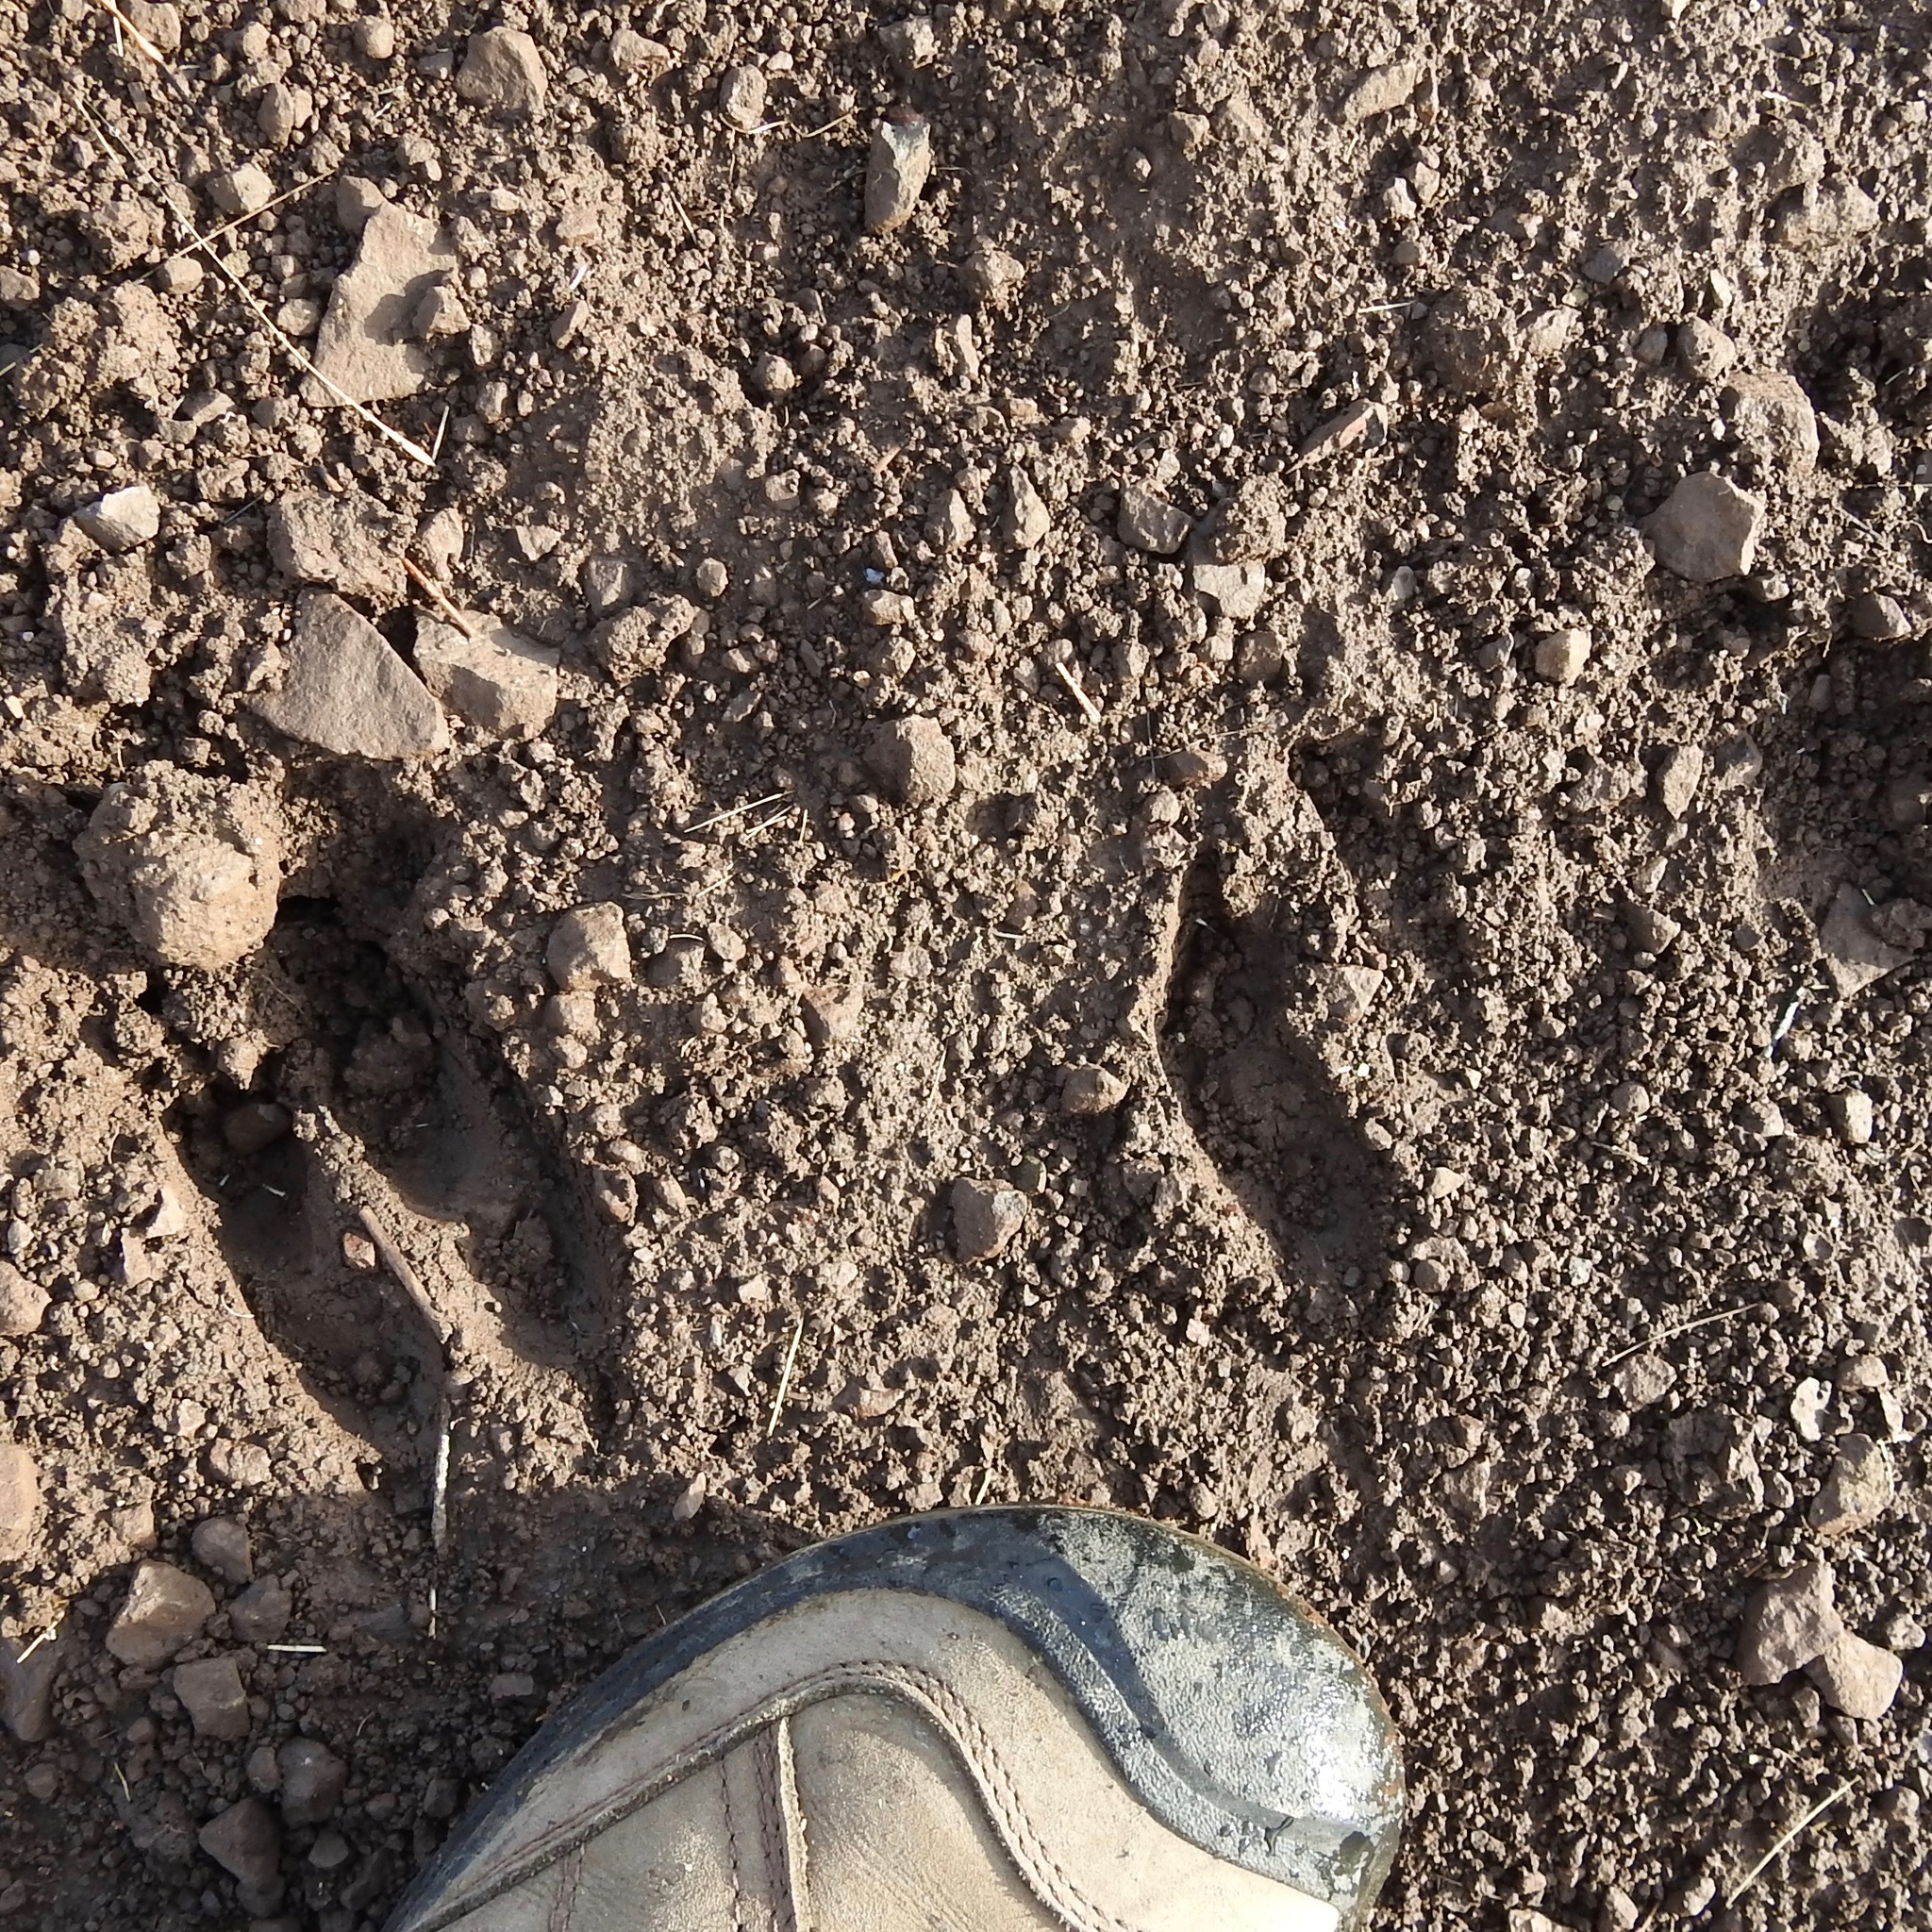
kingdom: Animalia
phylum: Chordata
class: Mammalia
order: Artiodactyla
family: Cervidae
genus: Odocoileus
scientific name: Odocoileus hemionus
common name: Mule deer
